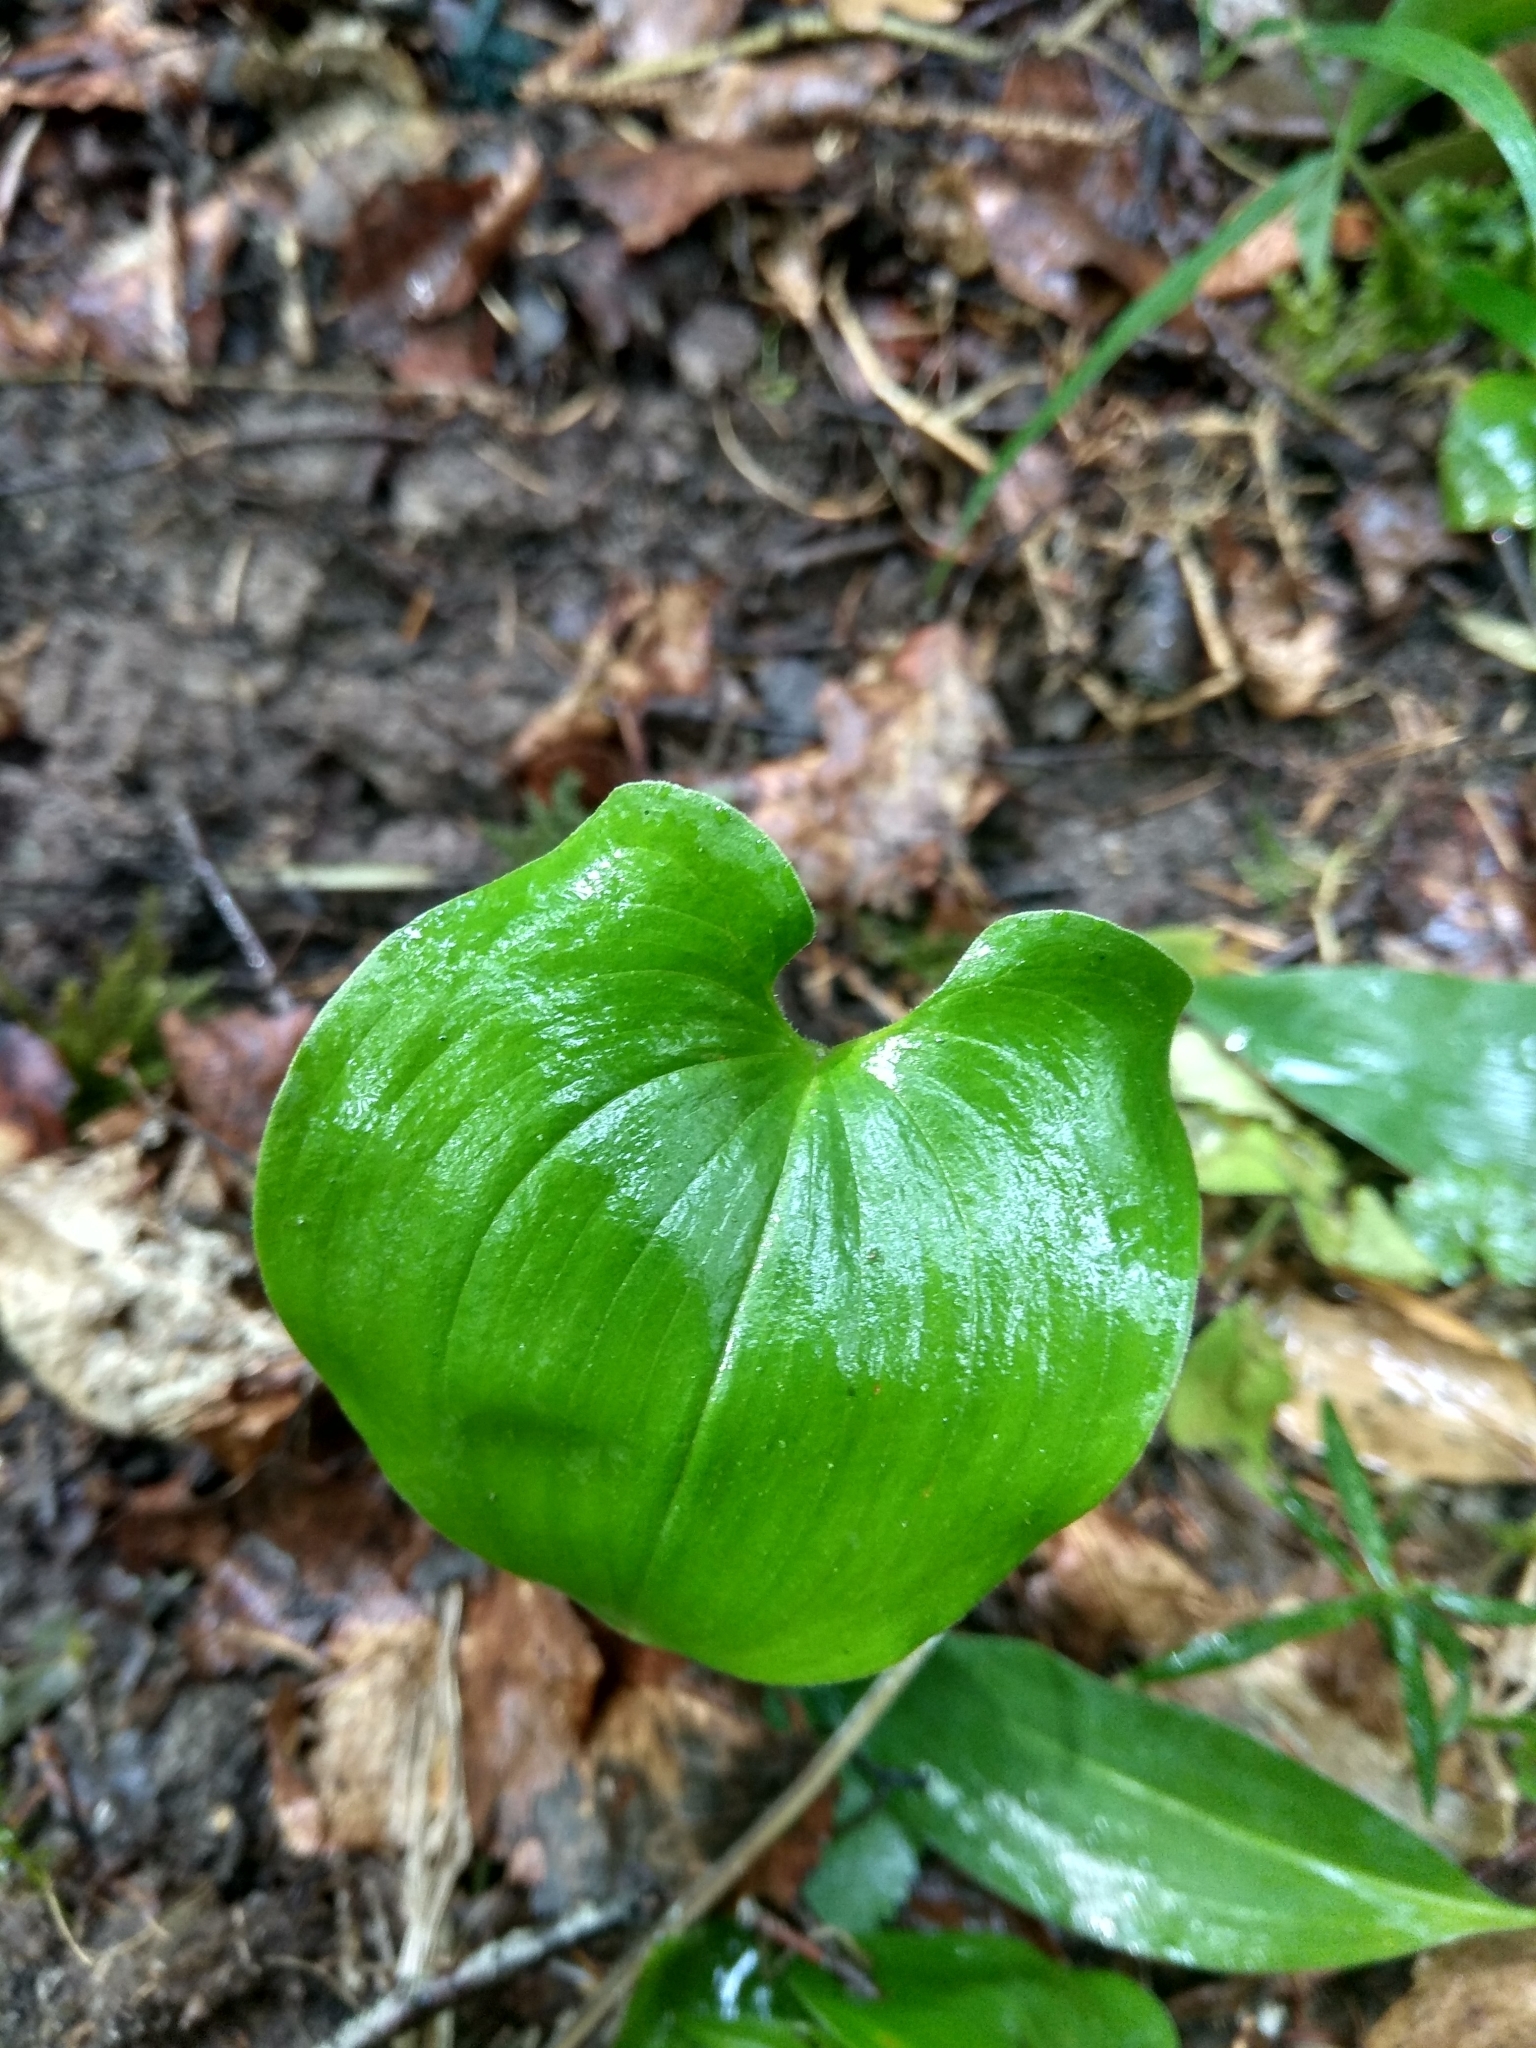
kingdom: Plantae
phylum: Tracheophyta
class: Liliopsida
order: Asparagales
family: Asparagaceae
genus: Maianthemum
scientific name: Maianthemum bifolium
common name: May lily
